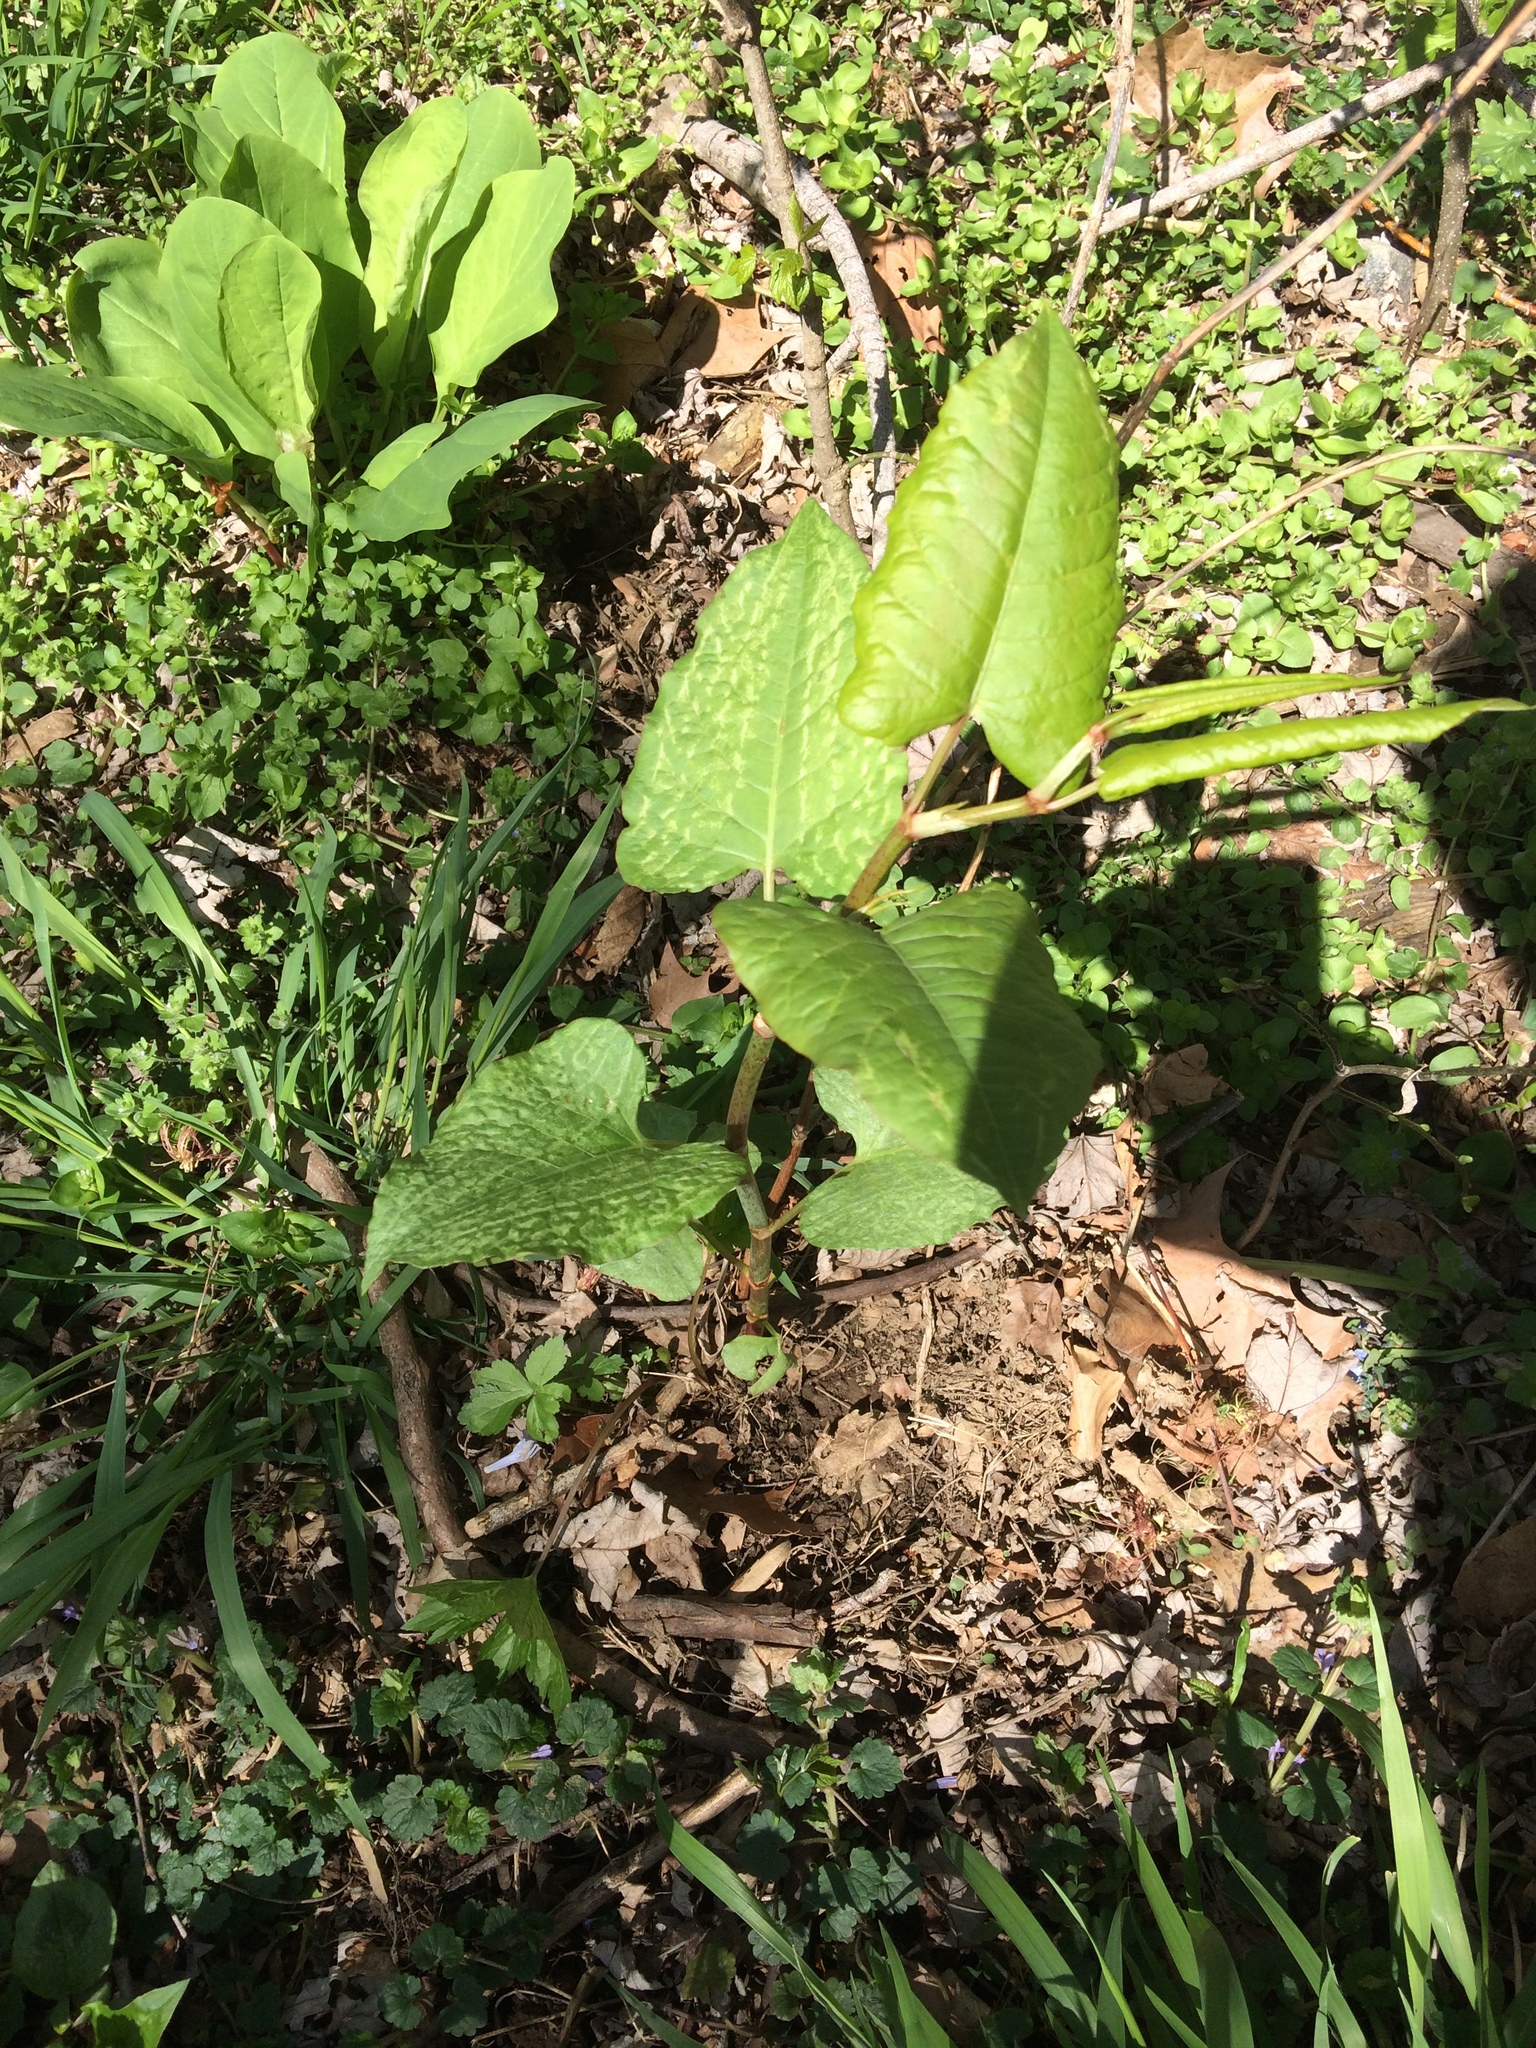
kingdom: Plantae
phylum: Tracheophyta
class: Magnoliopsida
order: Caryophyllales
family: Polygonaceae
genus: Reynoutria
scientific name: Reynoutria japonica
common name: Japanese knotweed
